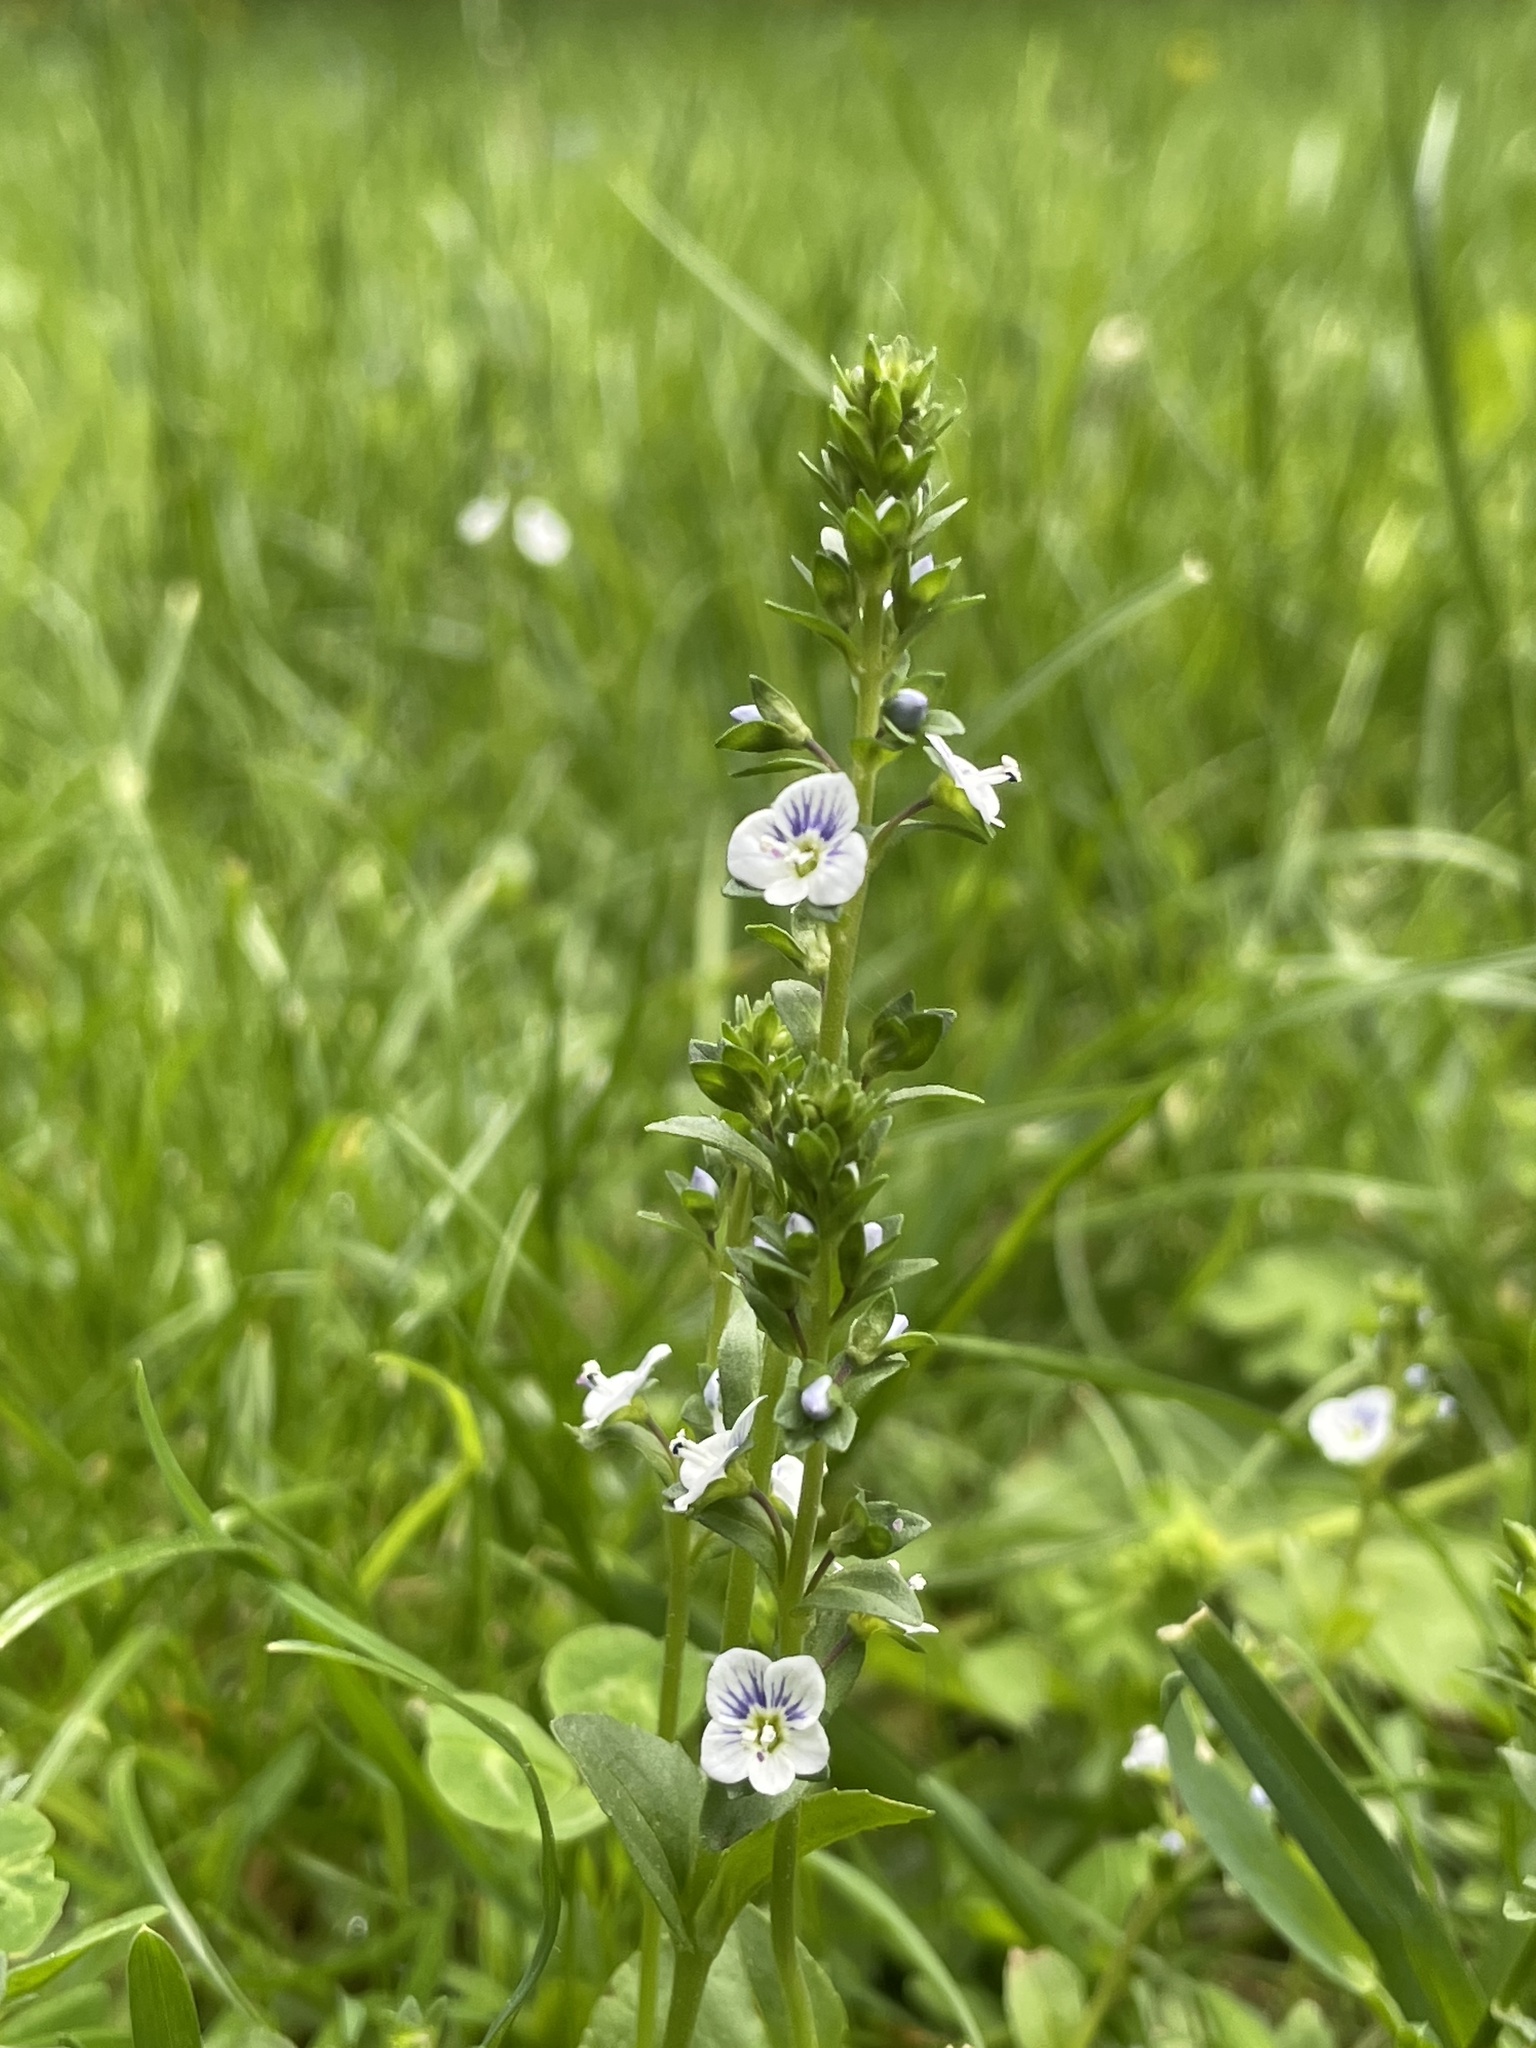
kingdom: Plantae
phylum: Tracheophyta
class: Magnoliopsida
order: Lamiales
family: Plantaginaceae
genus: Veronica
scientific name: Veronica serpyllifolia
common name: Thyme-leaved speedwell
